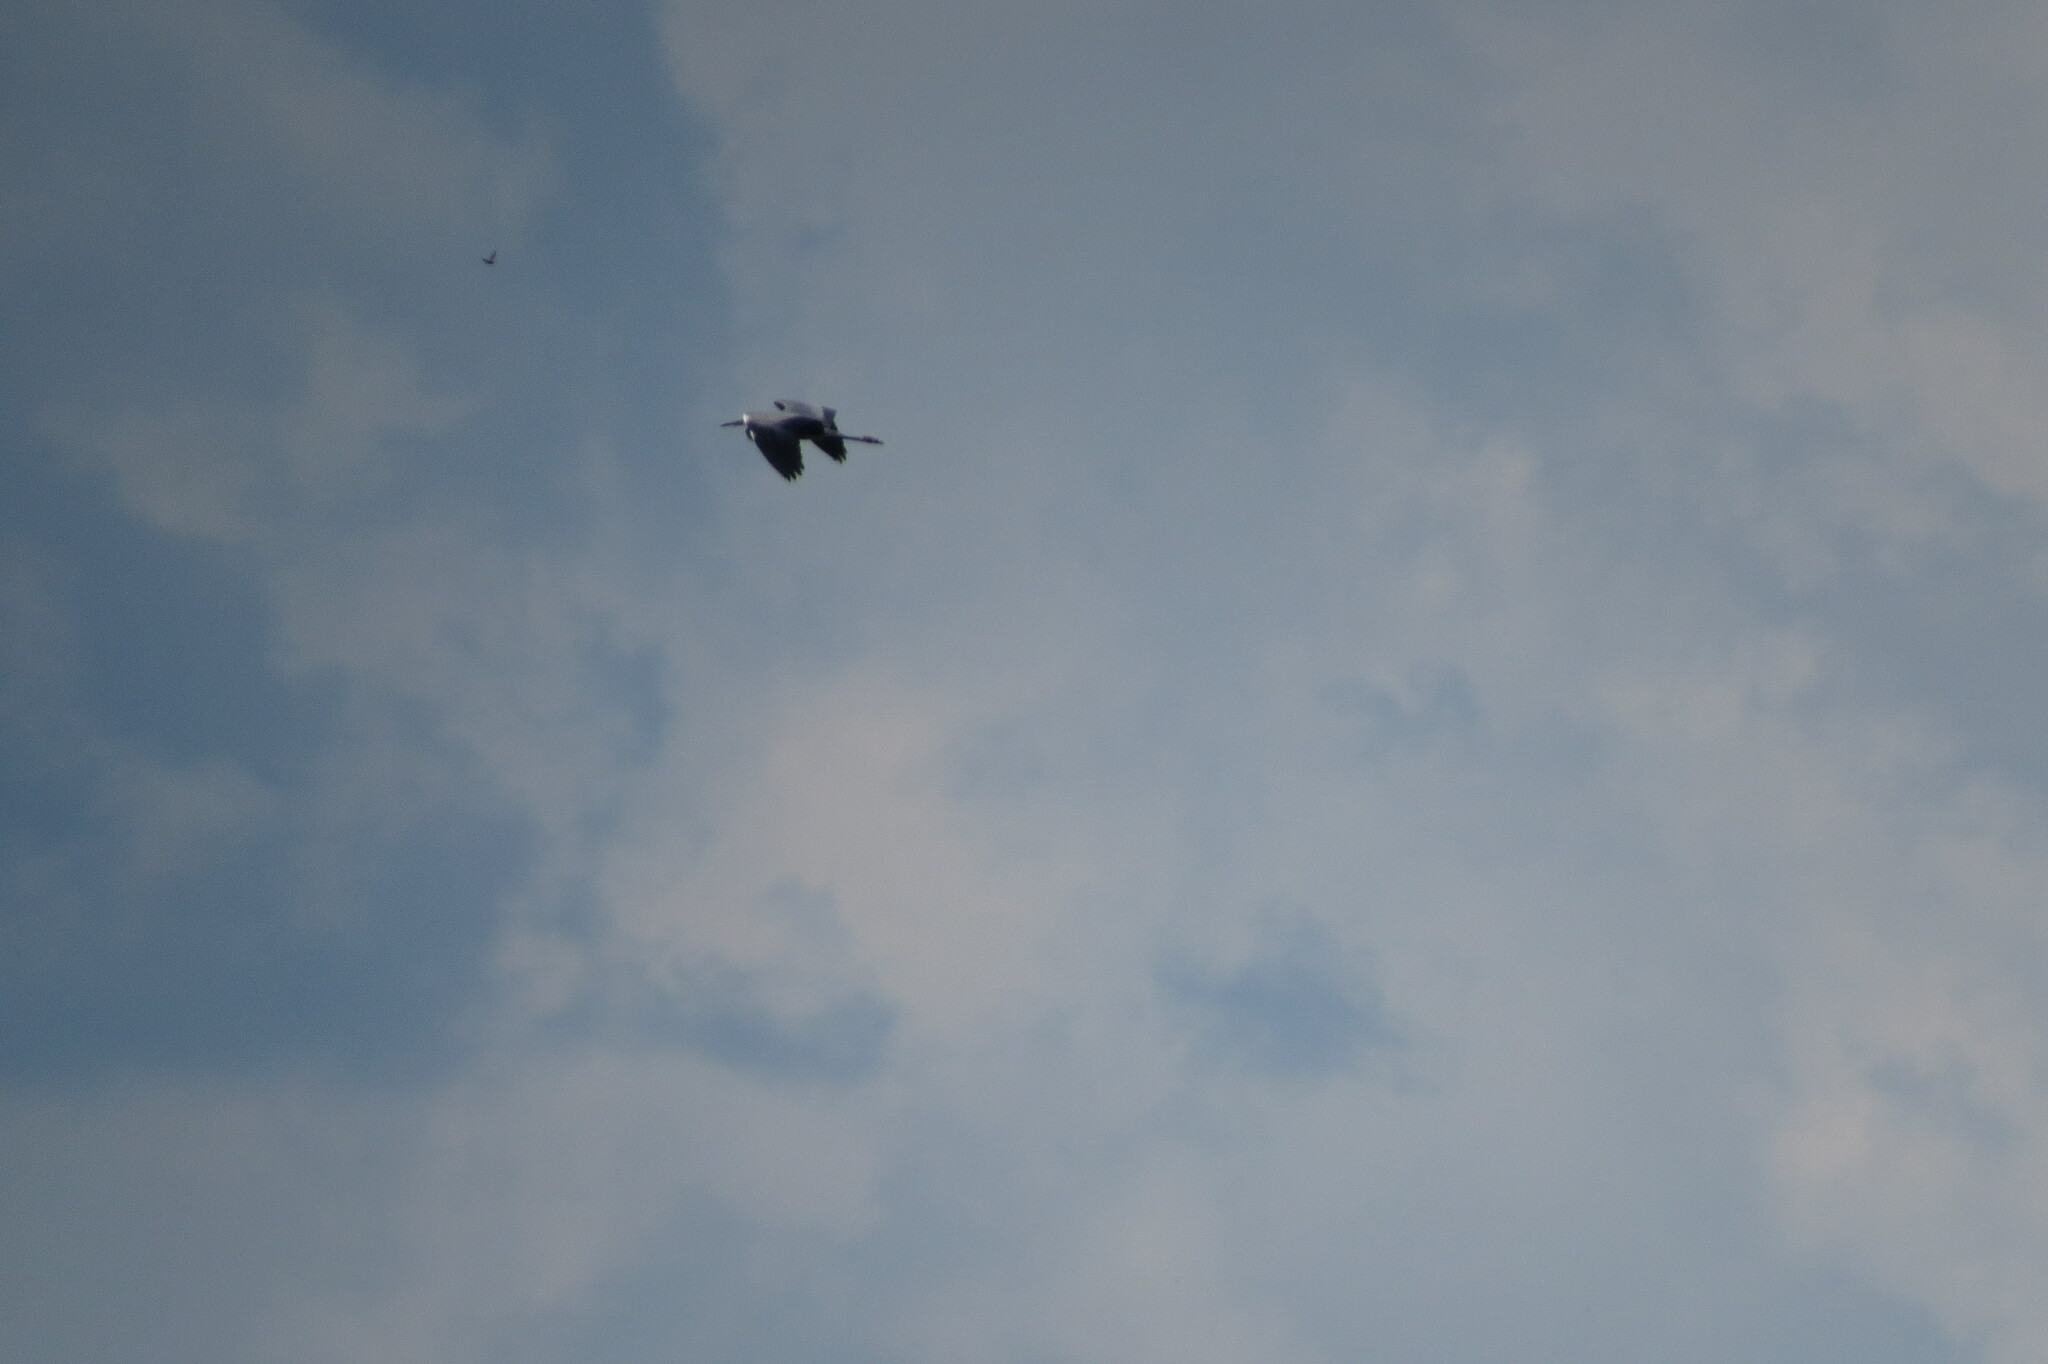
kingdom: Animalia
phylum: Chordata
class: Aves
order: Pelecaniformes
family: Ardeidae
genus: Ardea
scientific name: Ardea cinerea
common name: Grey heron
